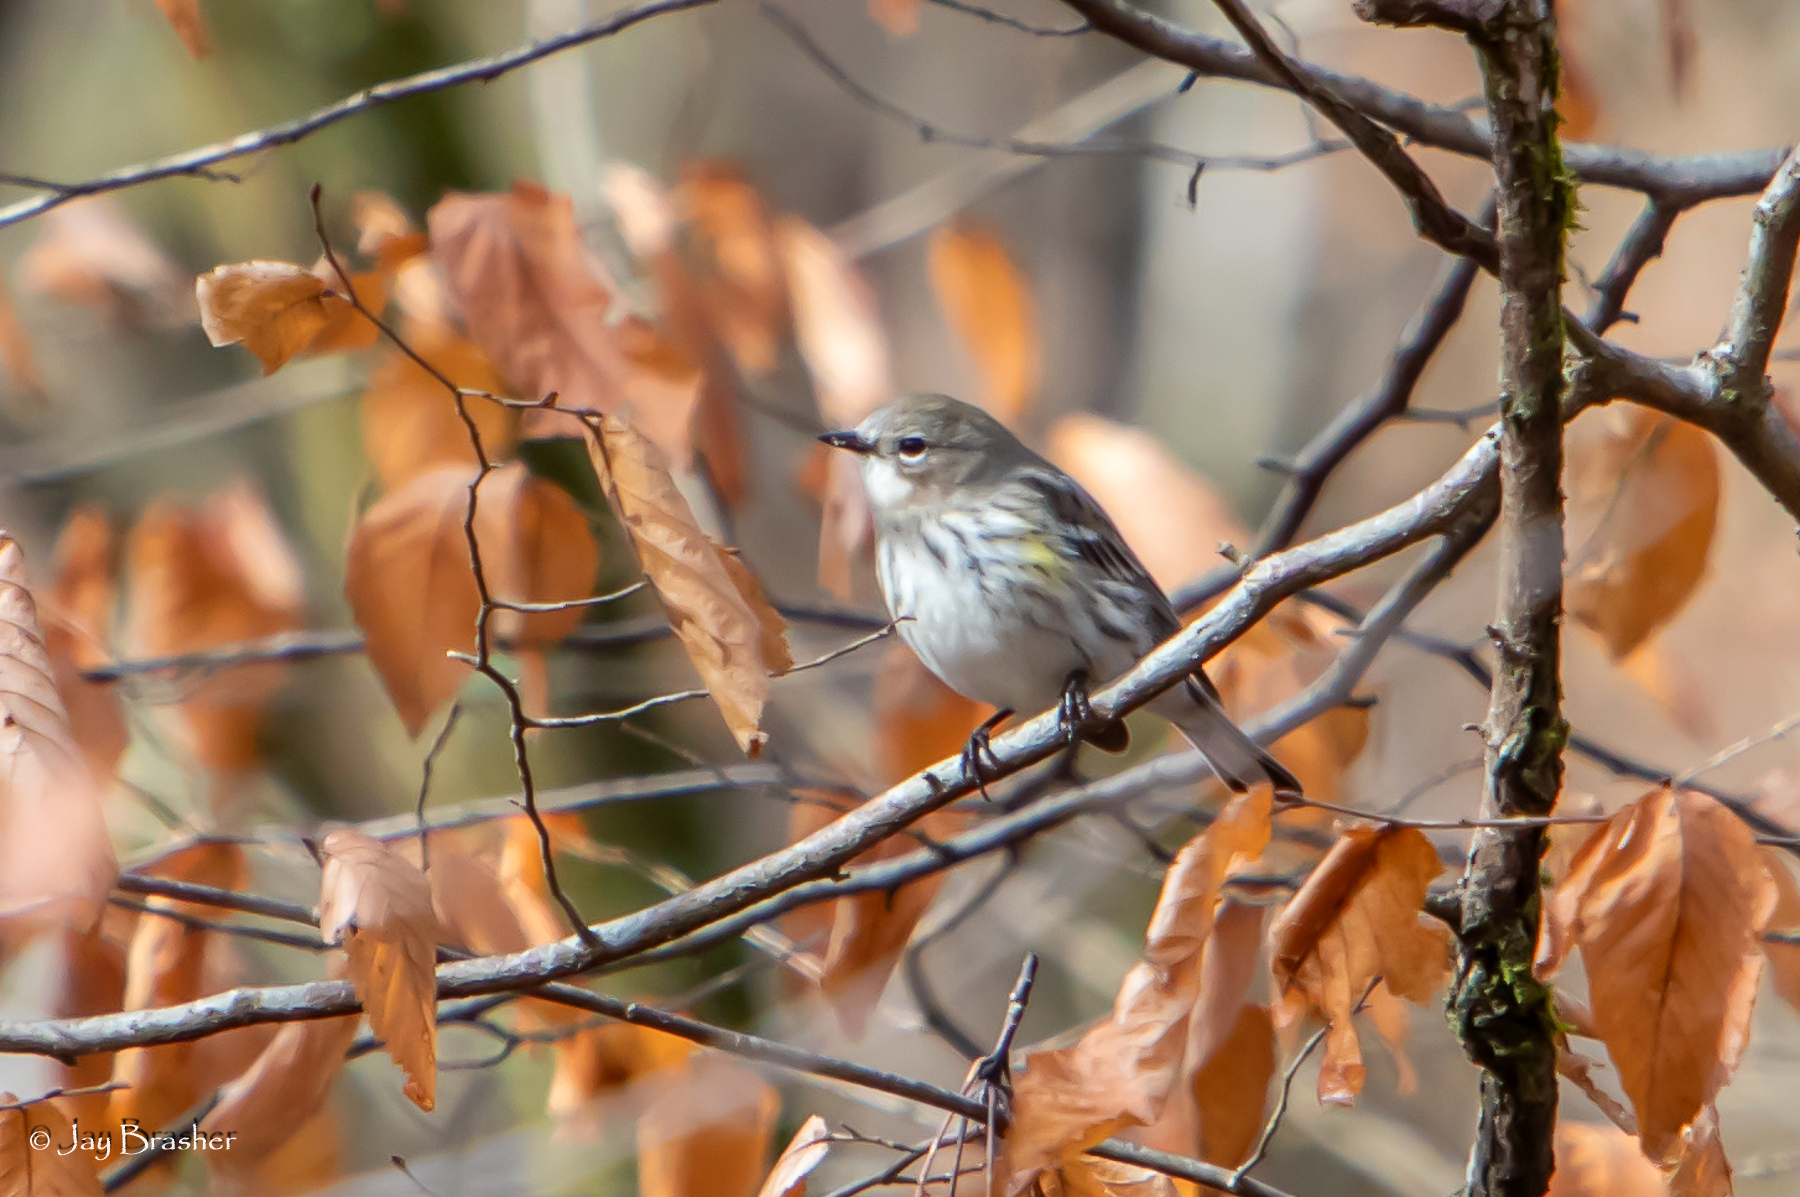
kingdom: Animalia
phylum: Chordata
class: Aves
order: Passeriformes
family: Parulidae
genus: Setophaga
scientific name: Setophaga coronata
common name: Myrtle warbler
